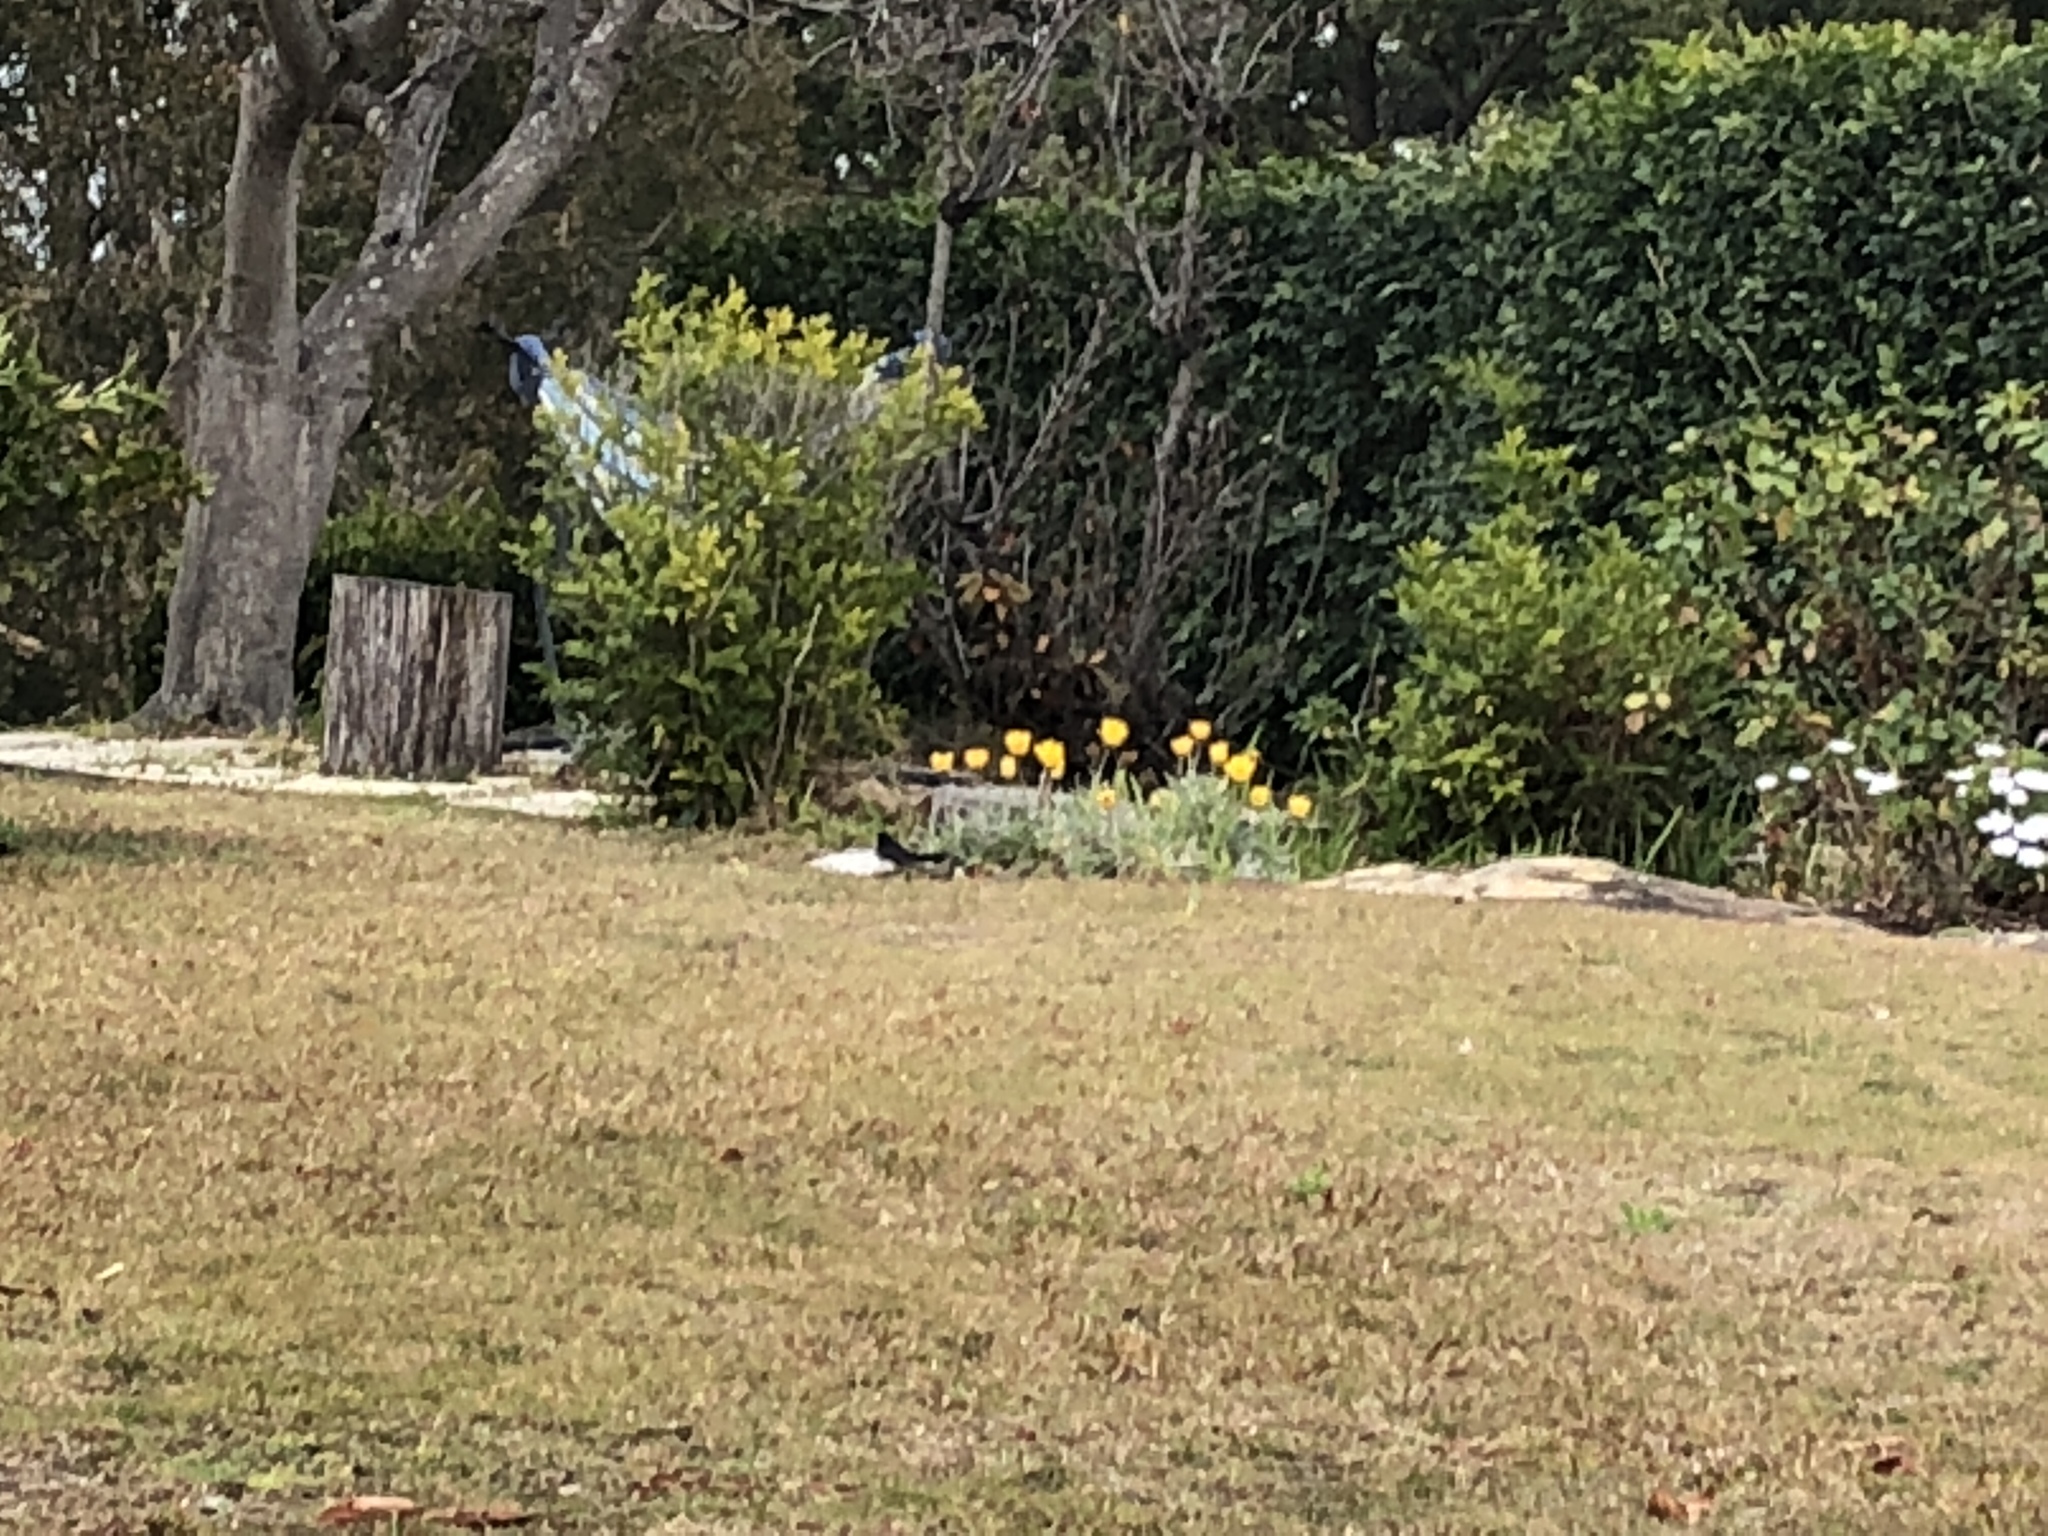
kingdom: Animalia
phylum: Chordata
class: Aves
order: Passeriformes
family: Rhipiduridae
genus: Rhipidura
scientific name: Rhipidura leucophrys
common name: Willie wagtail
